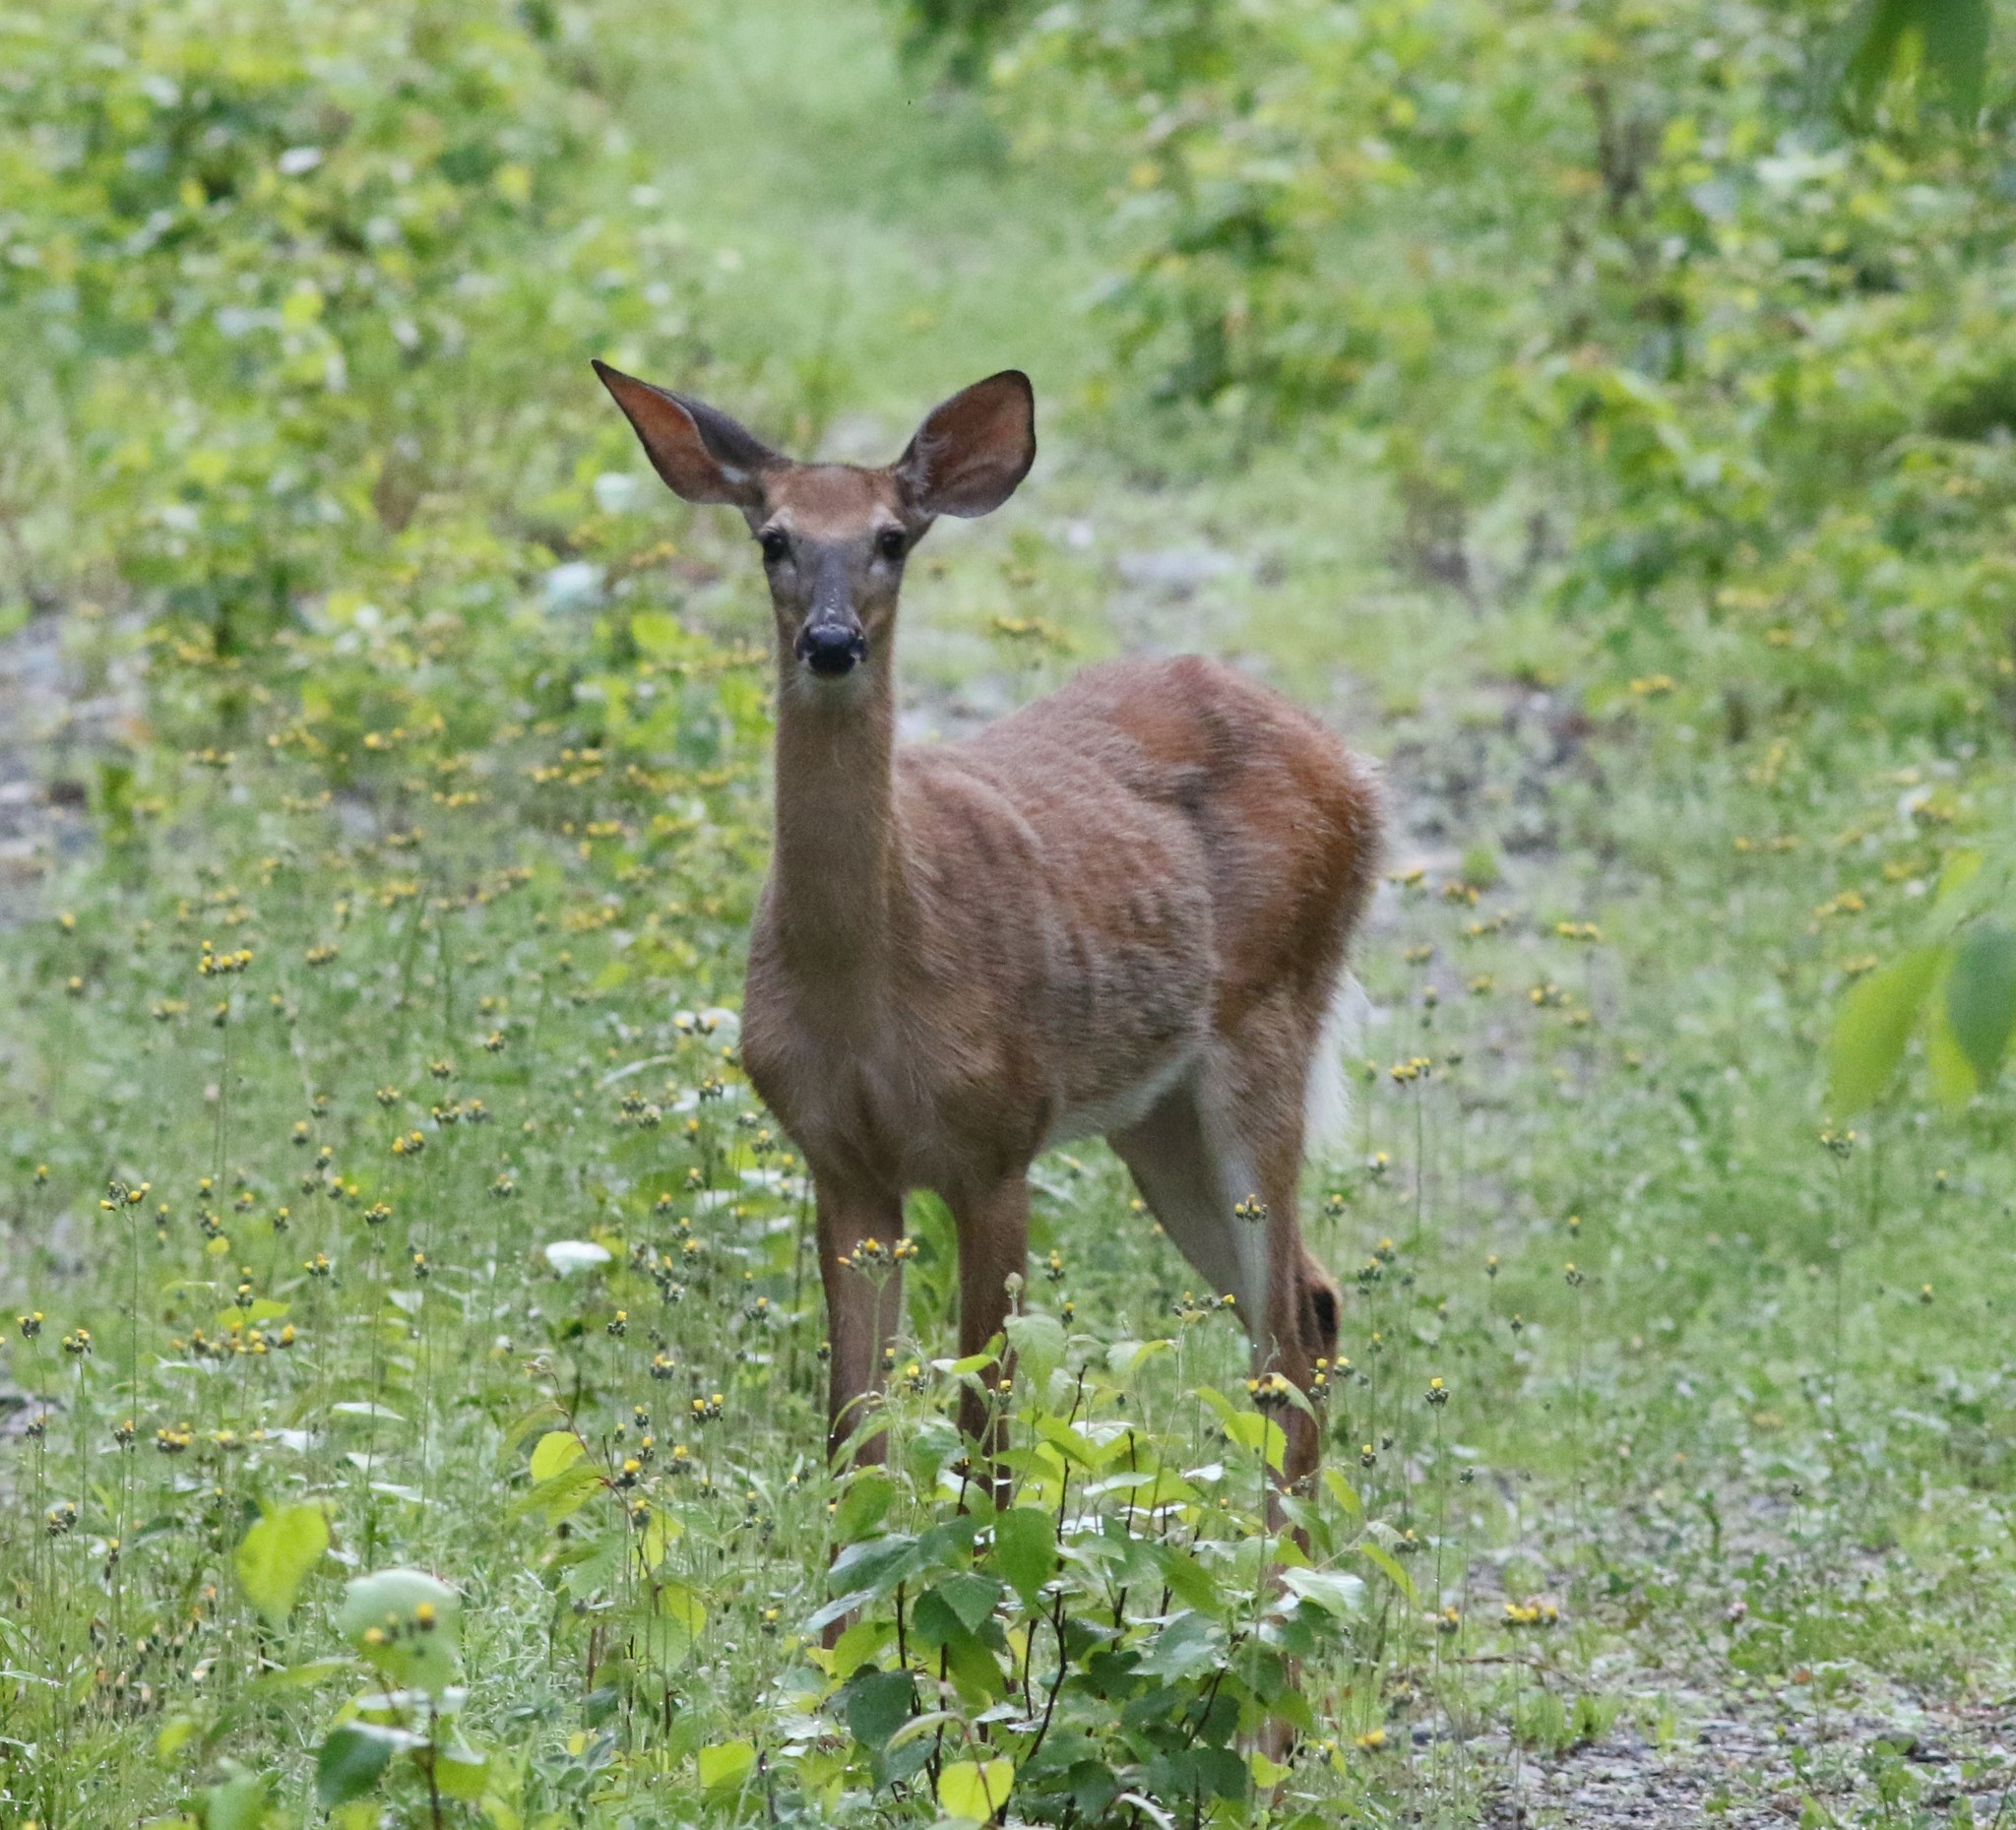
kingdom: Animalia
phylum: Chordata
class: Mammalia
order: Artiodactyla
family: Cervidae
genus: Odocoileus
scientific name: Odocoileus virginianus
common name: White-tailed deer
